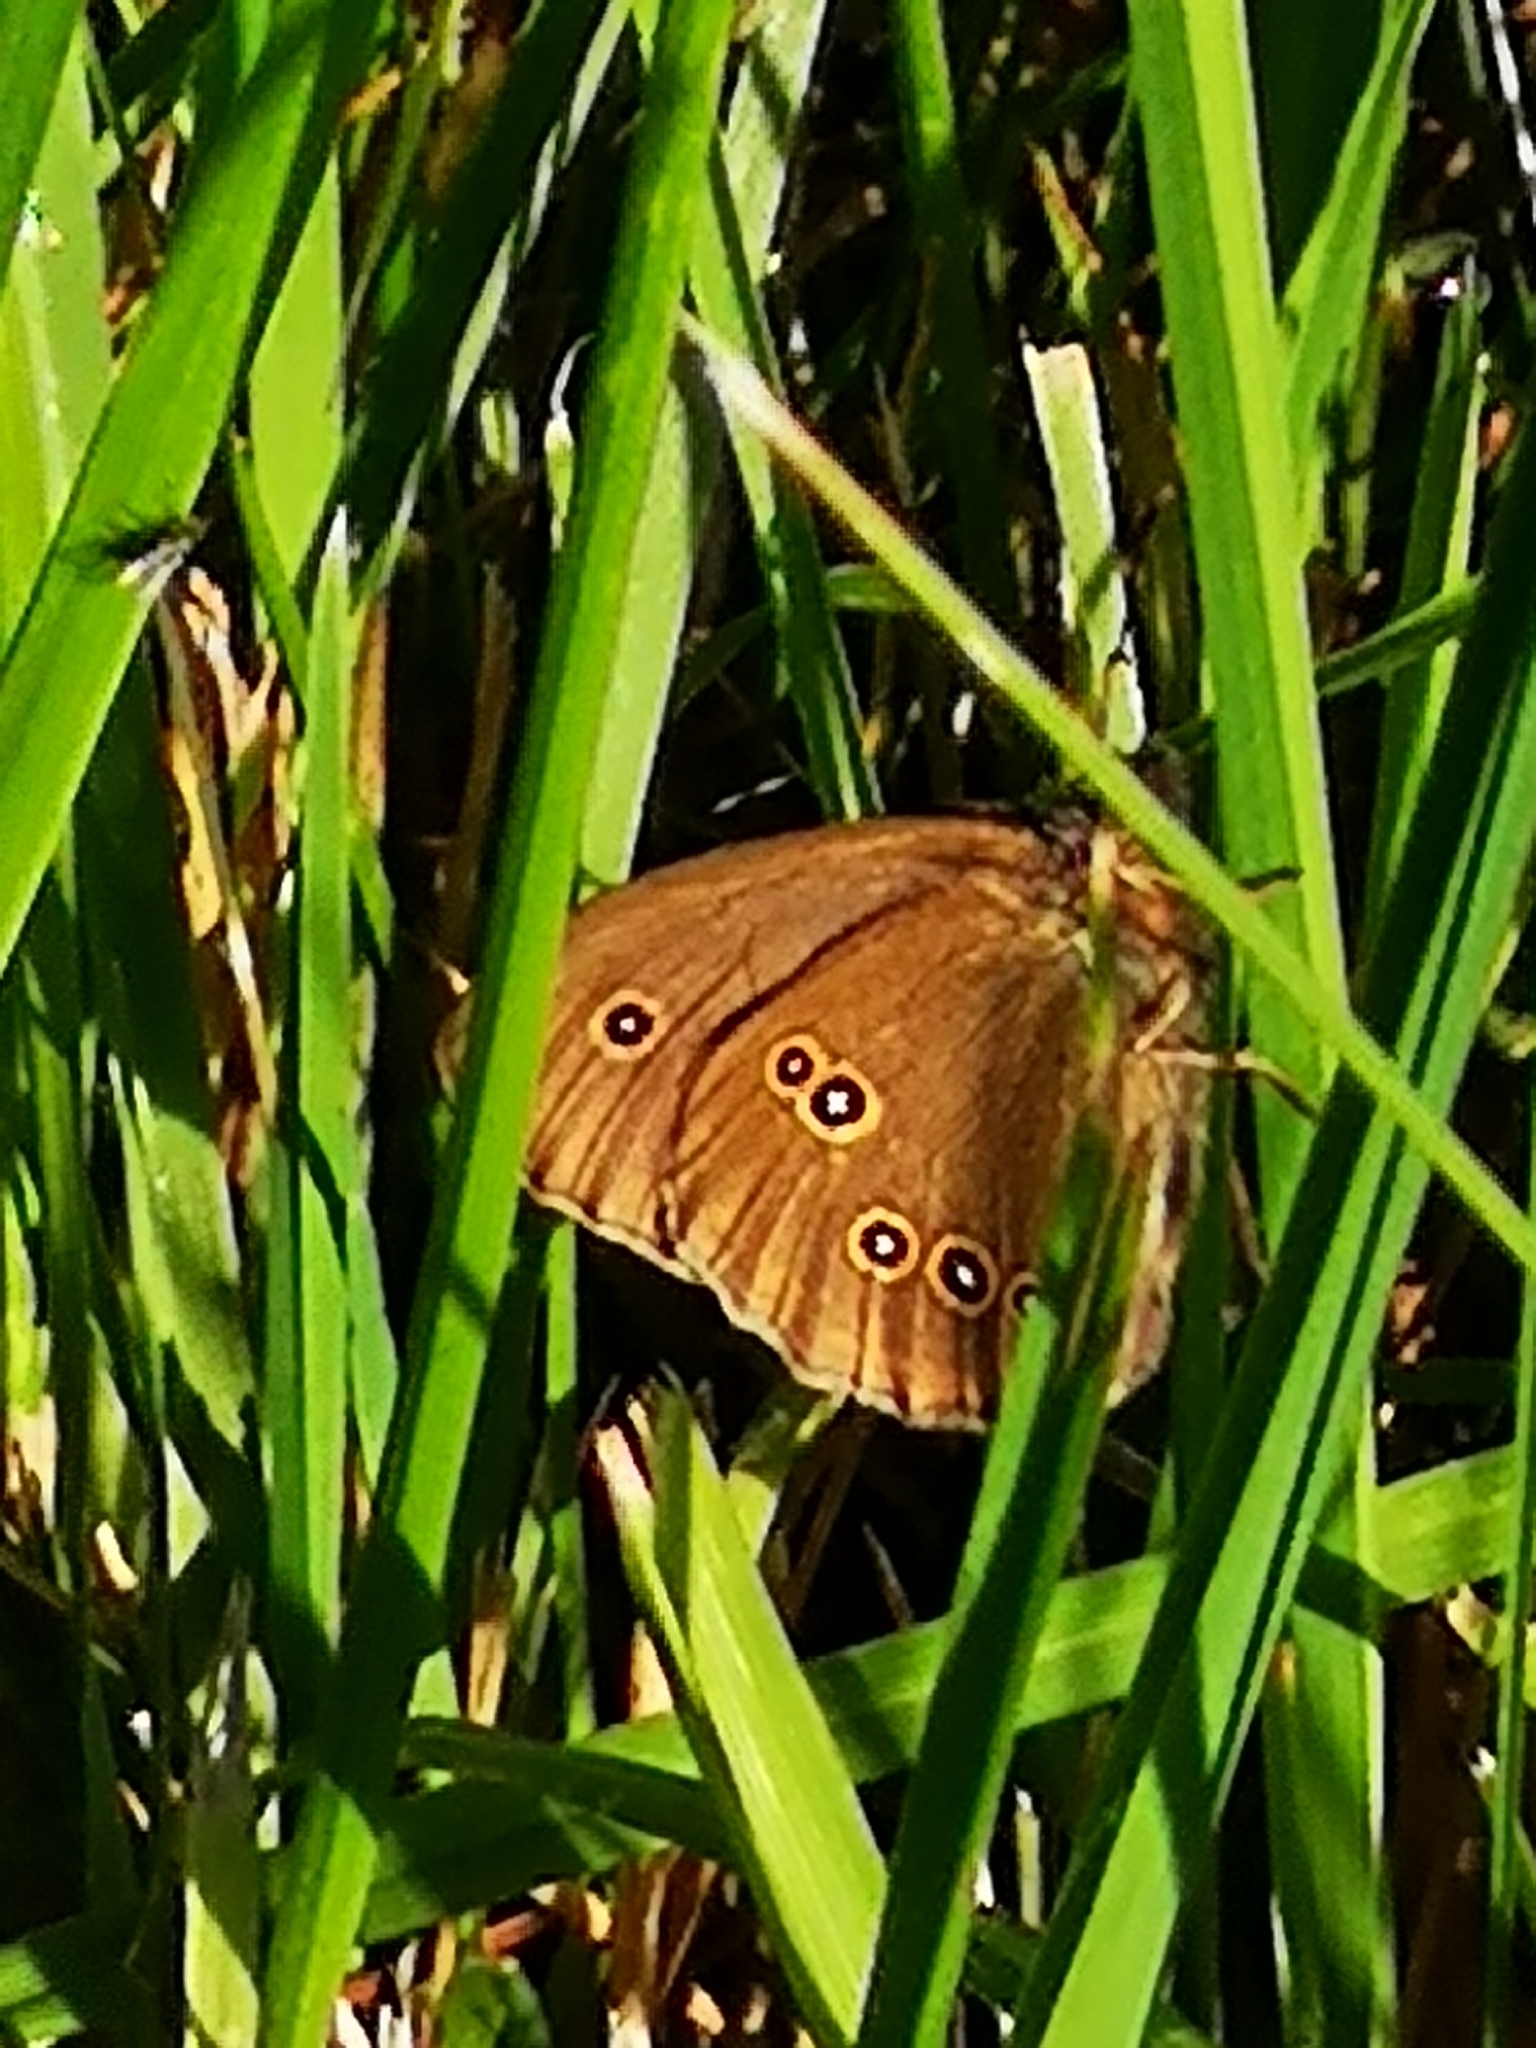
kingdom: Animalia
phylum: Arthropoda
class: Insecta
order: Lepidoptera
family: Nymphalidae
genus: Aphantopus
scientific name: Aphantopus hyperantus
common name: Ringlet
